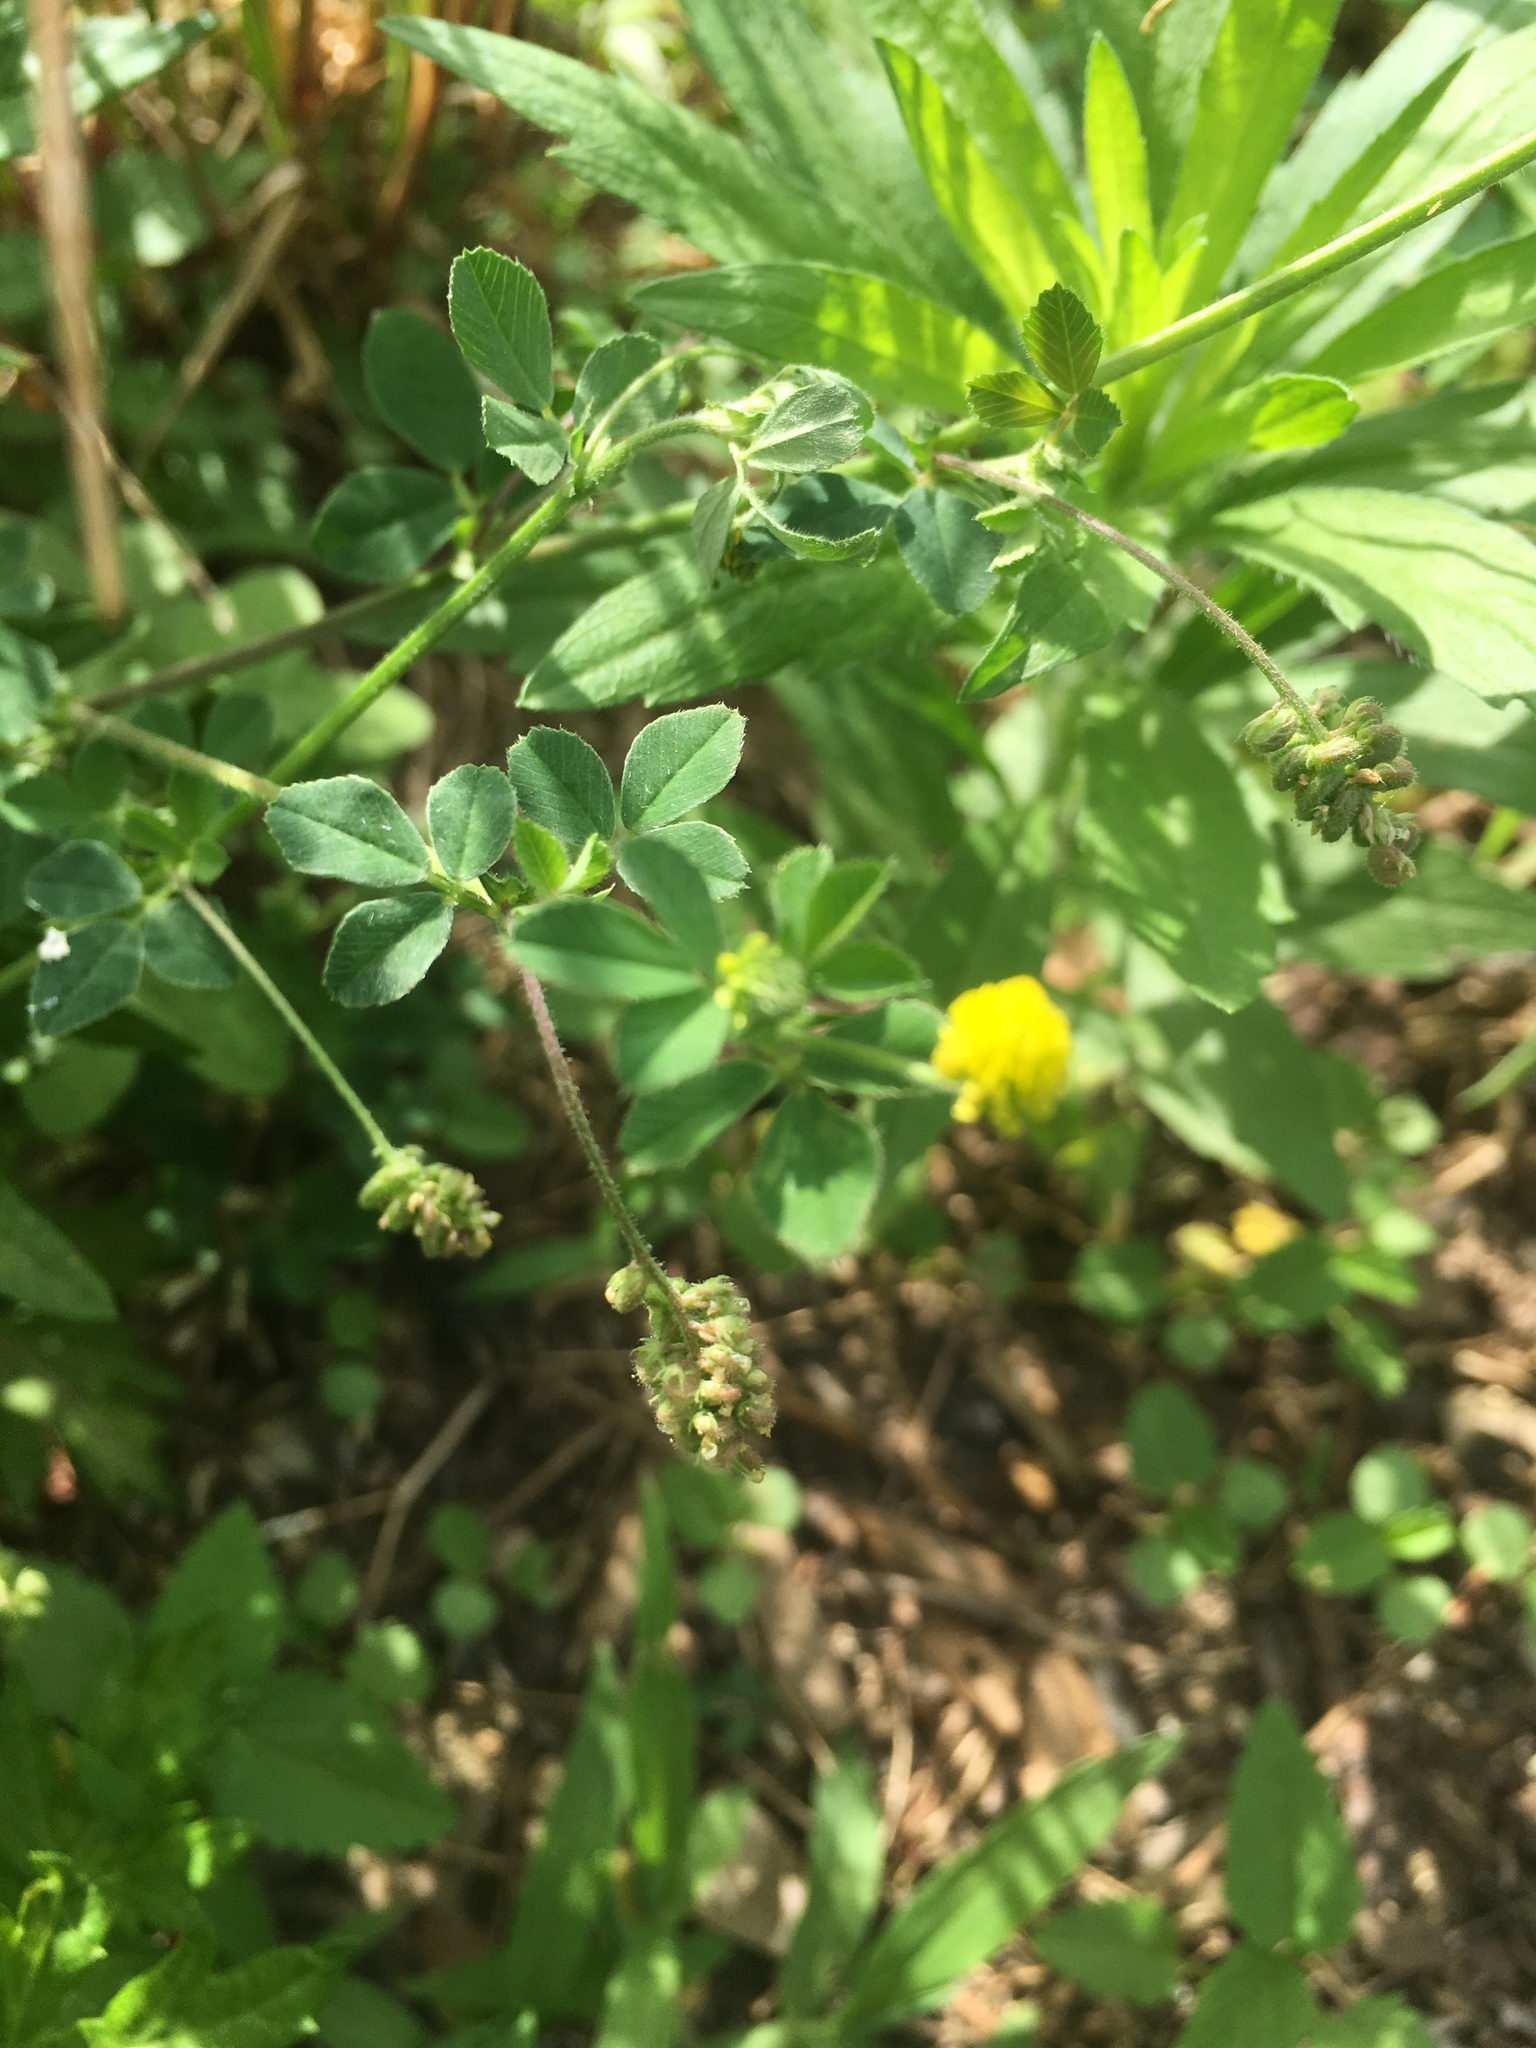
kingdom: Plantae
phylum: Tracheophyta
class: Magnoliopsida
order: Fabales
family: Fabaceae
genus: Medicago
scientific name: Medicago lupulina
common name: Black medick
